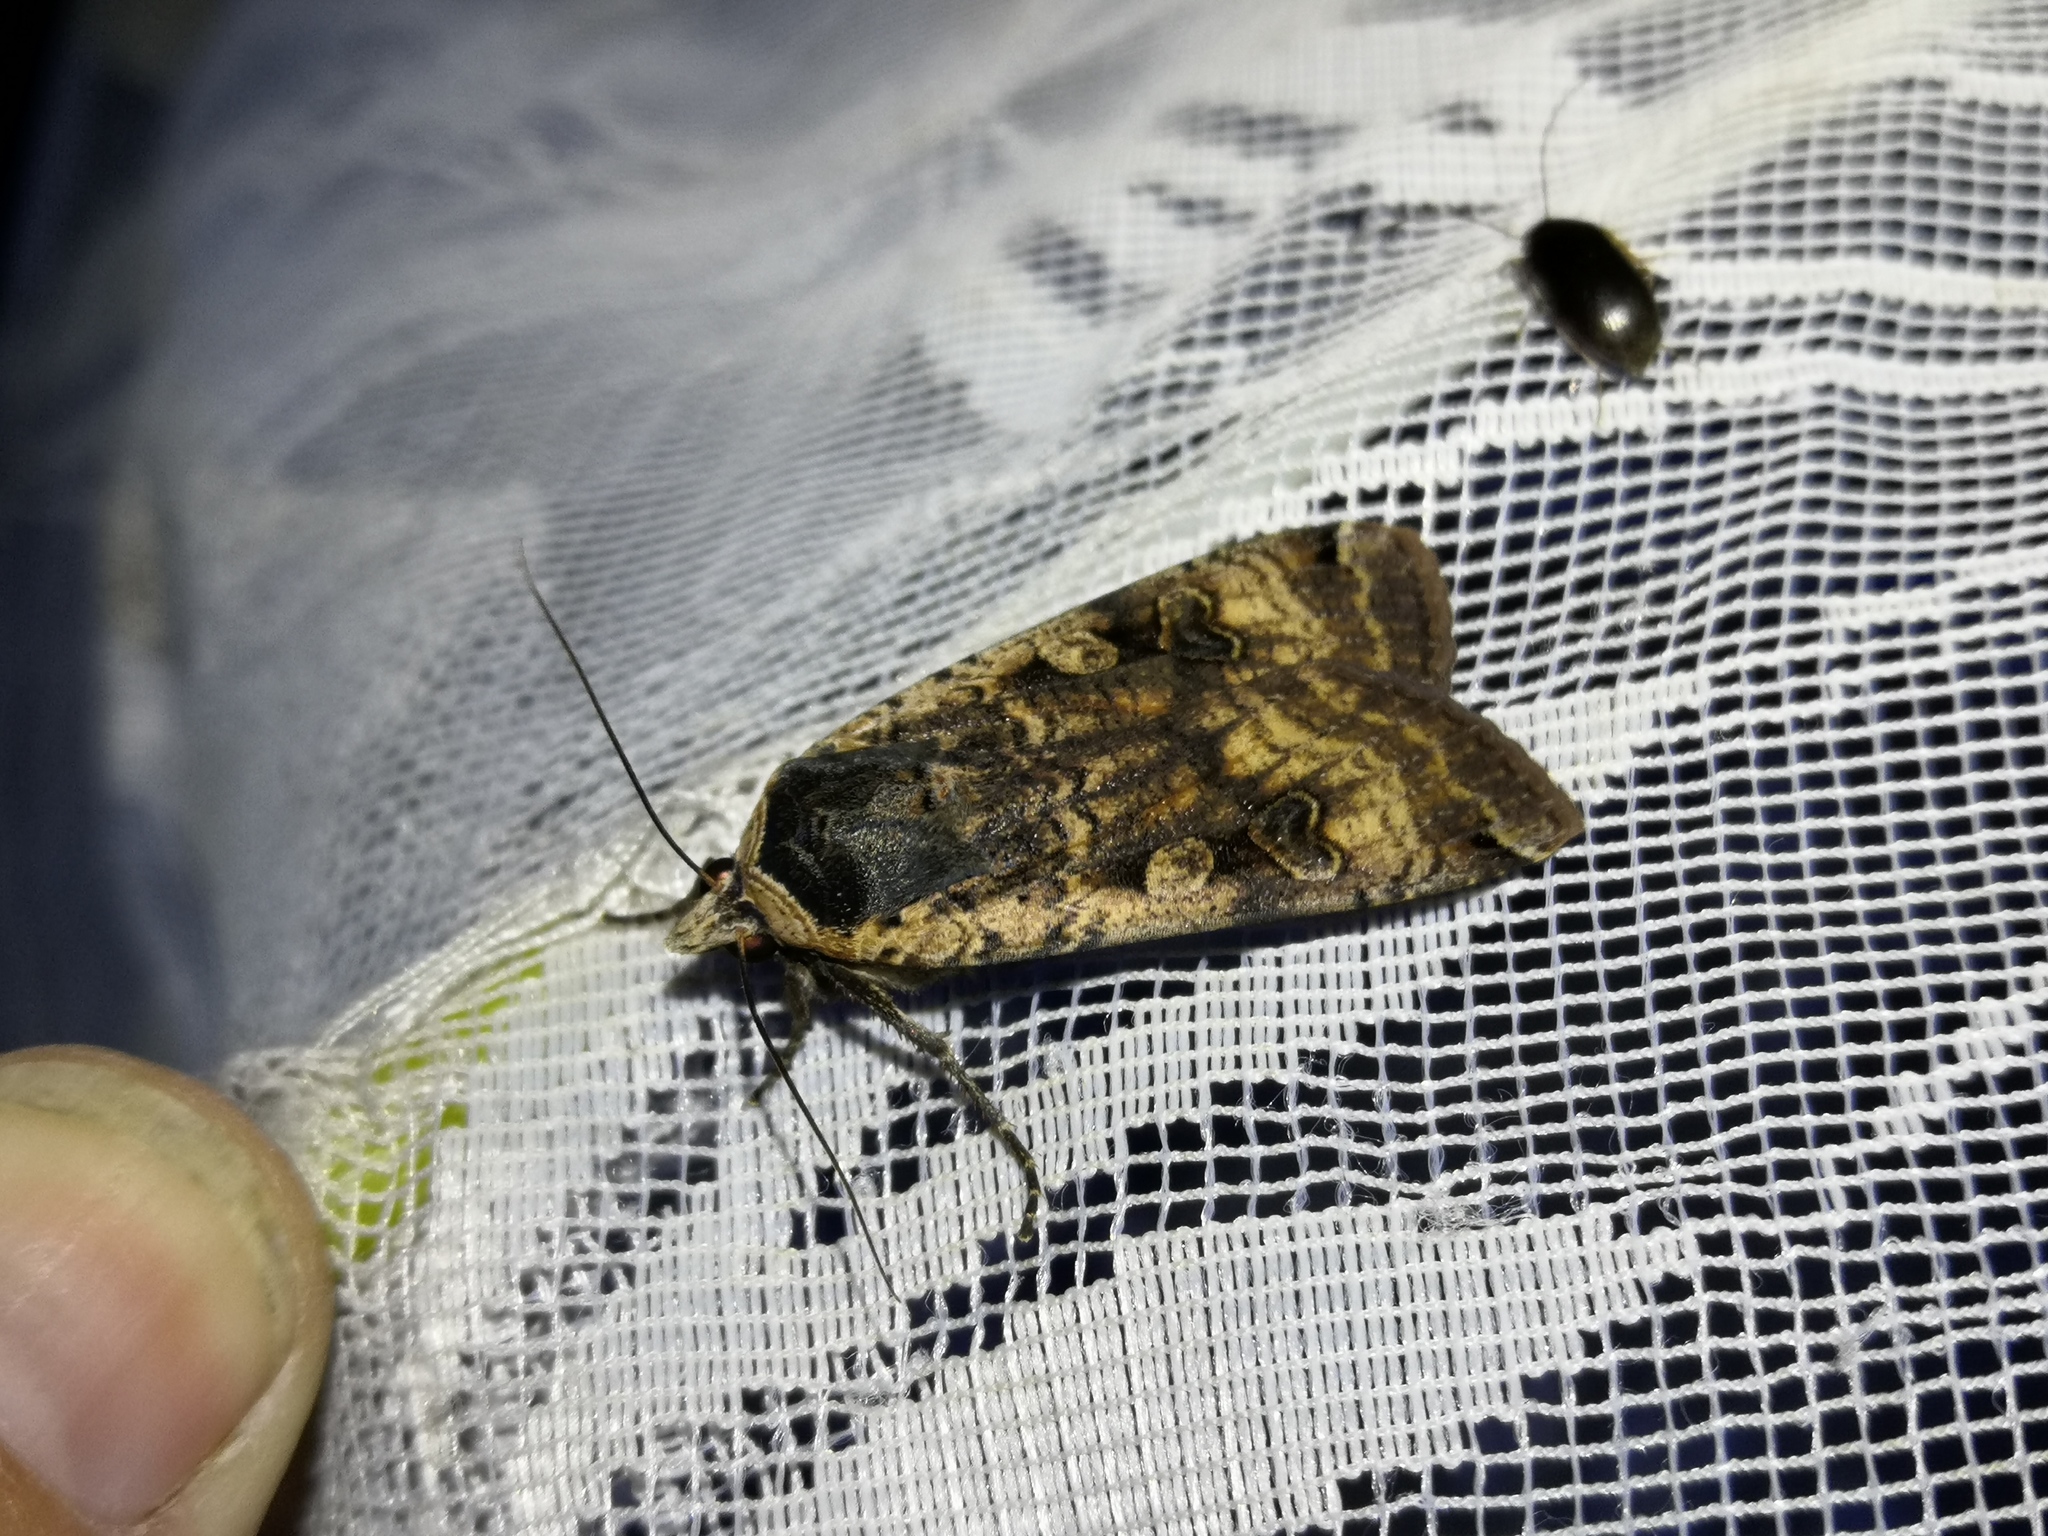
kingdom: Animalia
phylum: Arthropoda
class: Insecta
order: Lepidoptera
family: Noctuidae
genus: Noctua
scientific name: Noctua pronuba
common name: Large yellow underwing
